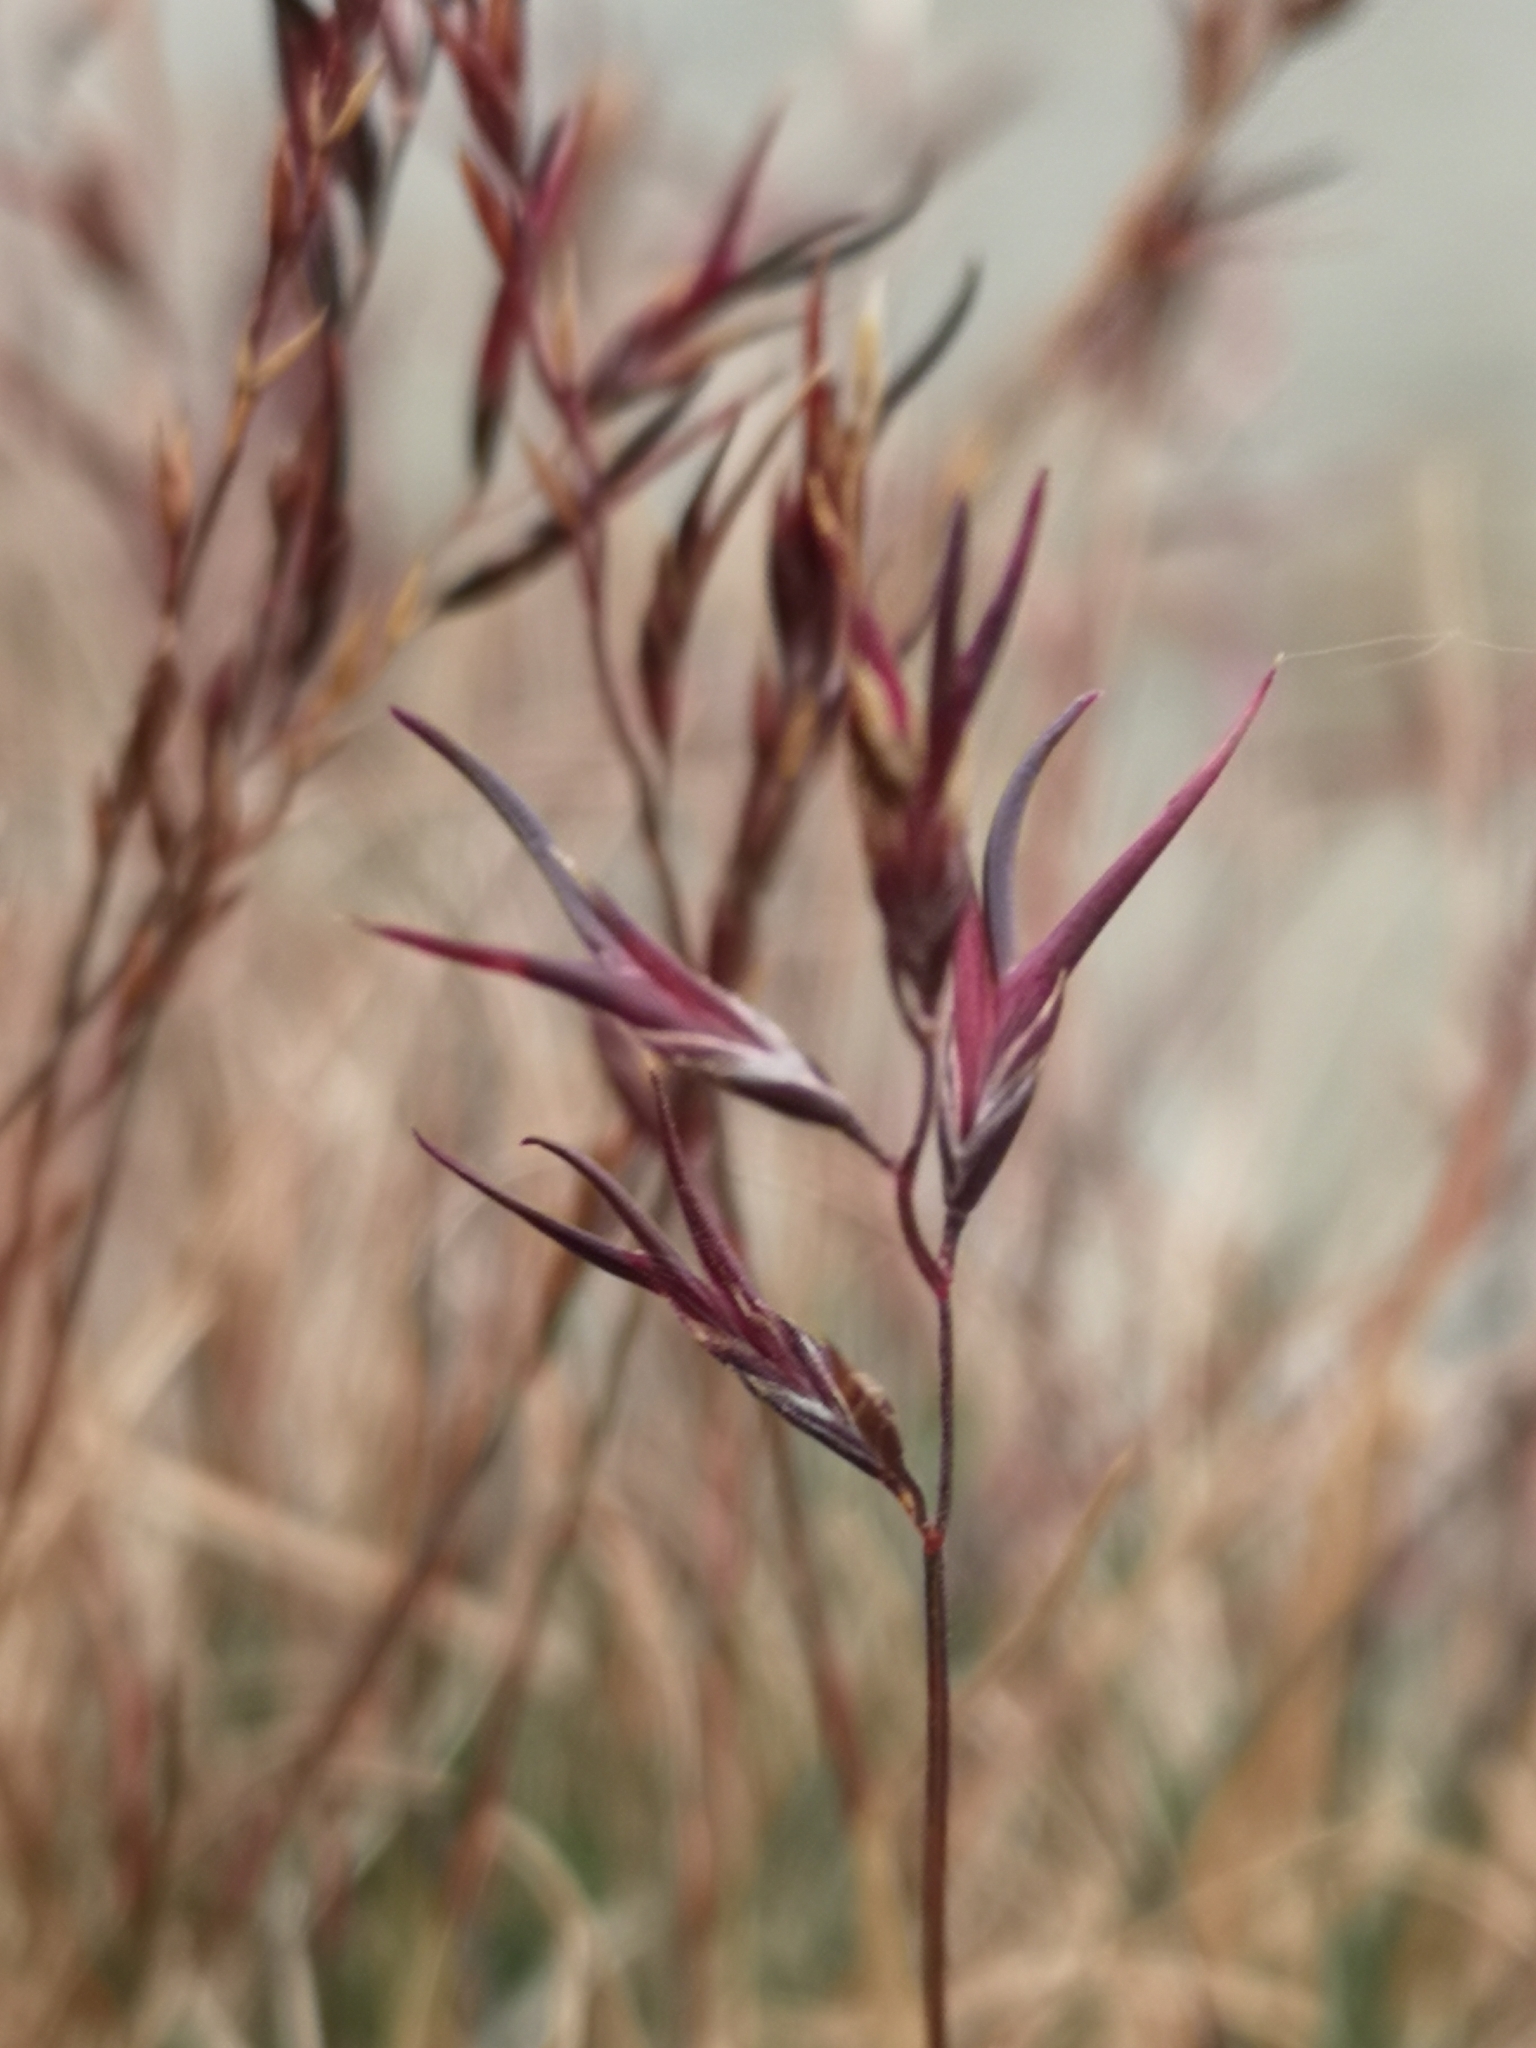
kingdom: Plantae
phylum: Tracheophyta
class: Liliopsida
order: Poales
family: Poaceae
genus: Festuca
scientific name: Festuca vivipara
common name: Viviparous sheep's-fescue
